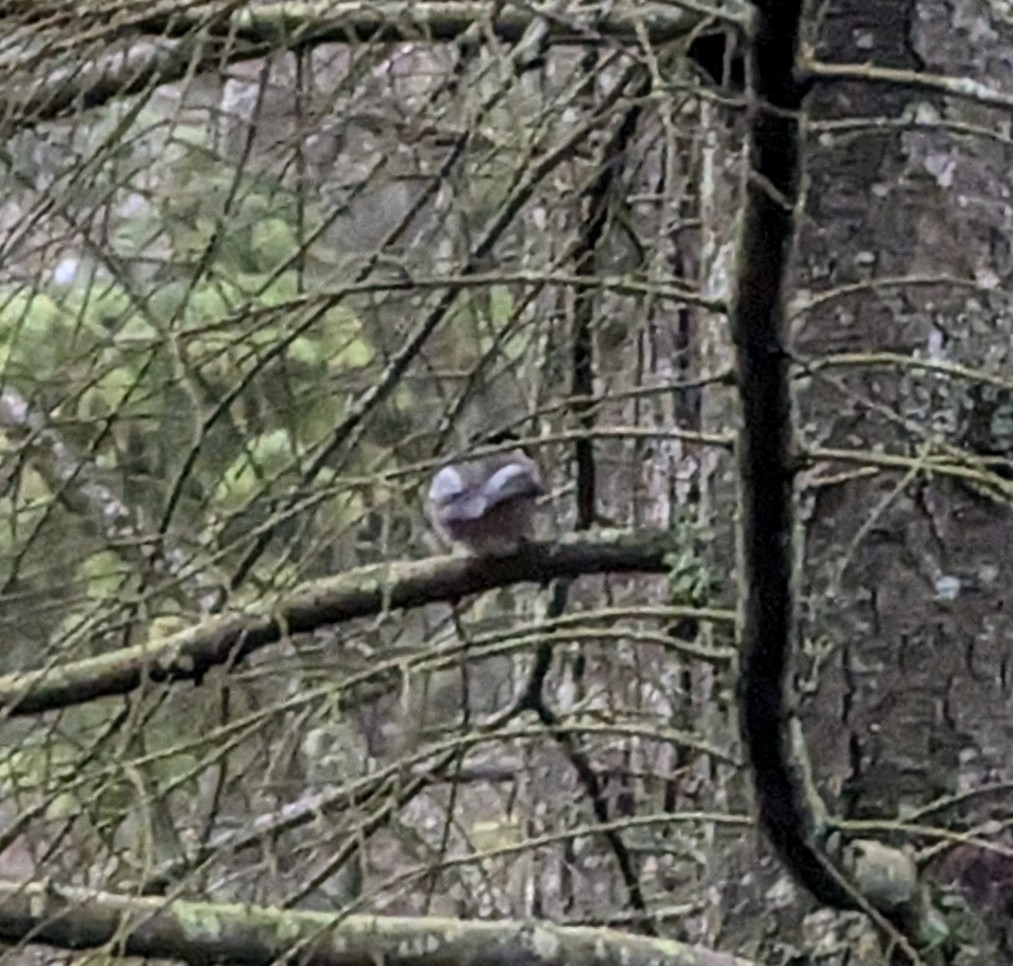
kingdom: Animalia
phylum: Chordata
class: Aves
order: Passeriformes
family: Paridae
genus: Poecile
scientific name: Poecile atricapillus
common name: Black-capped chickadee
